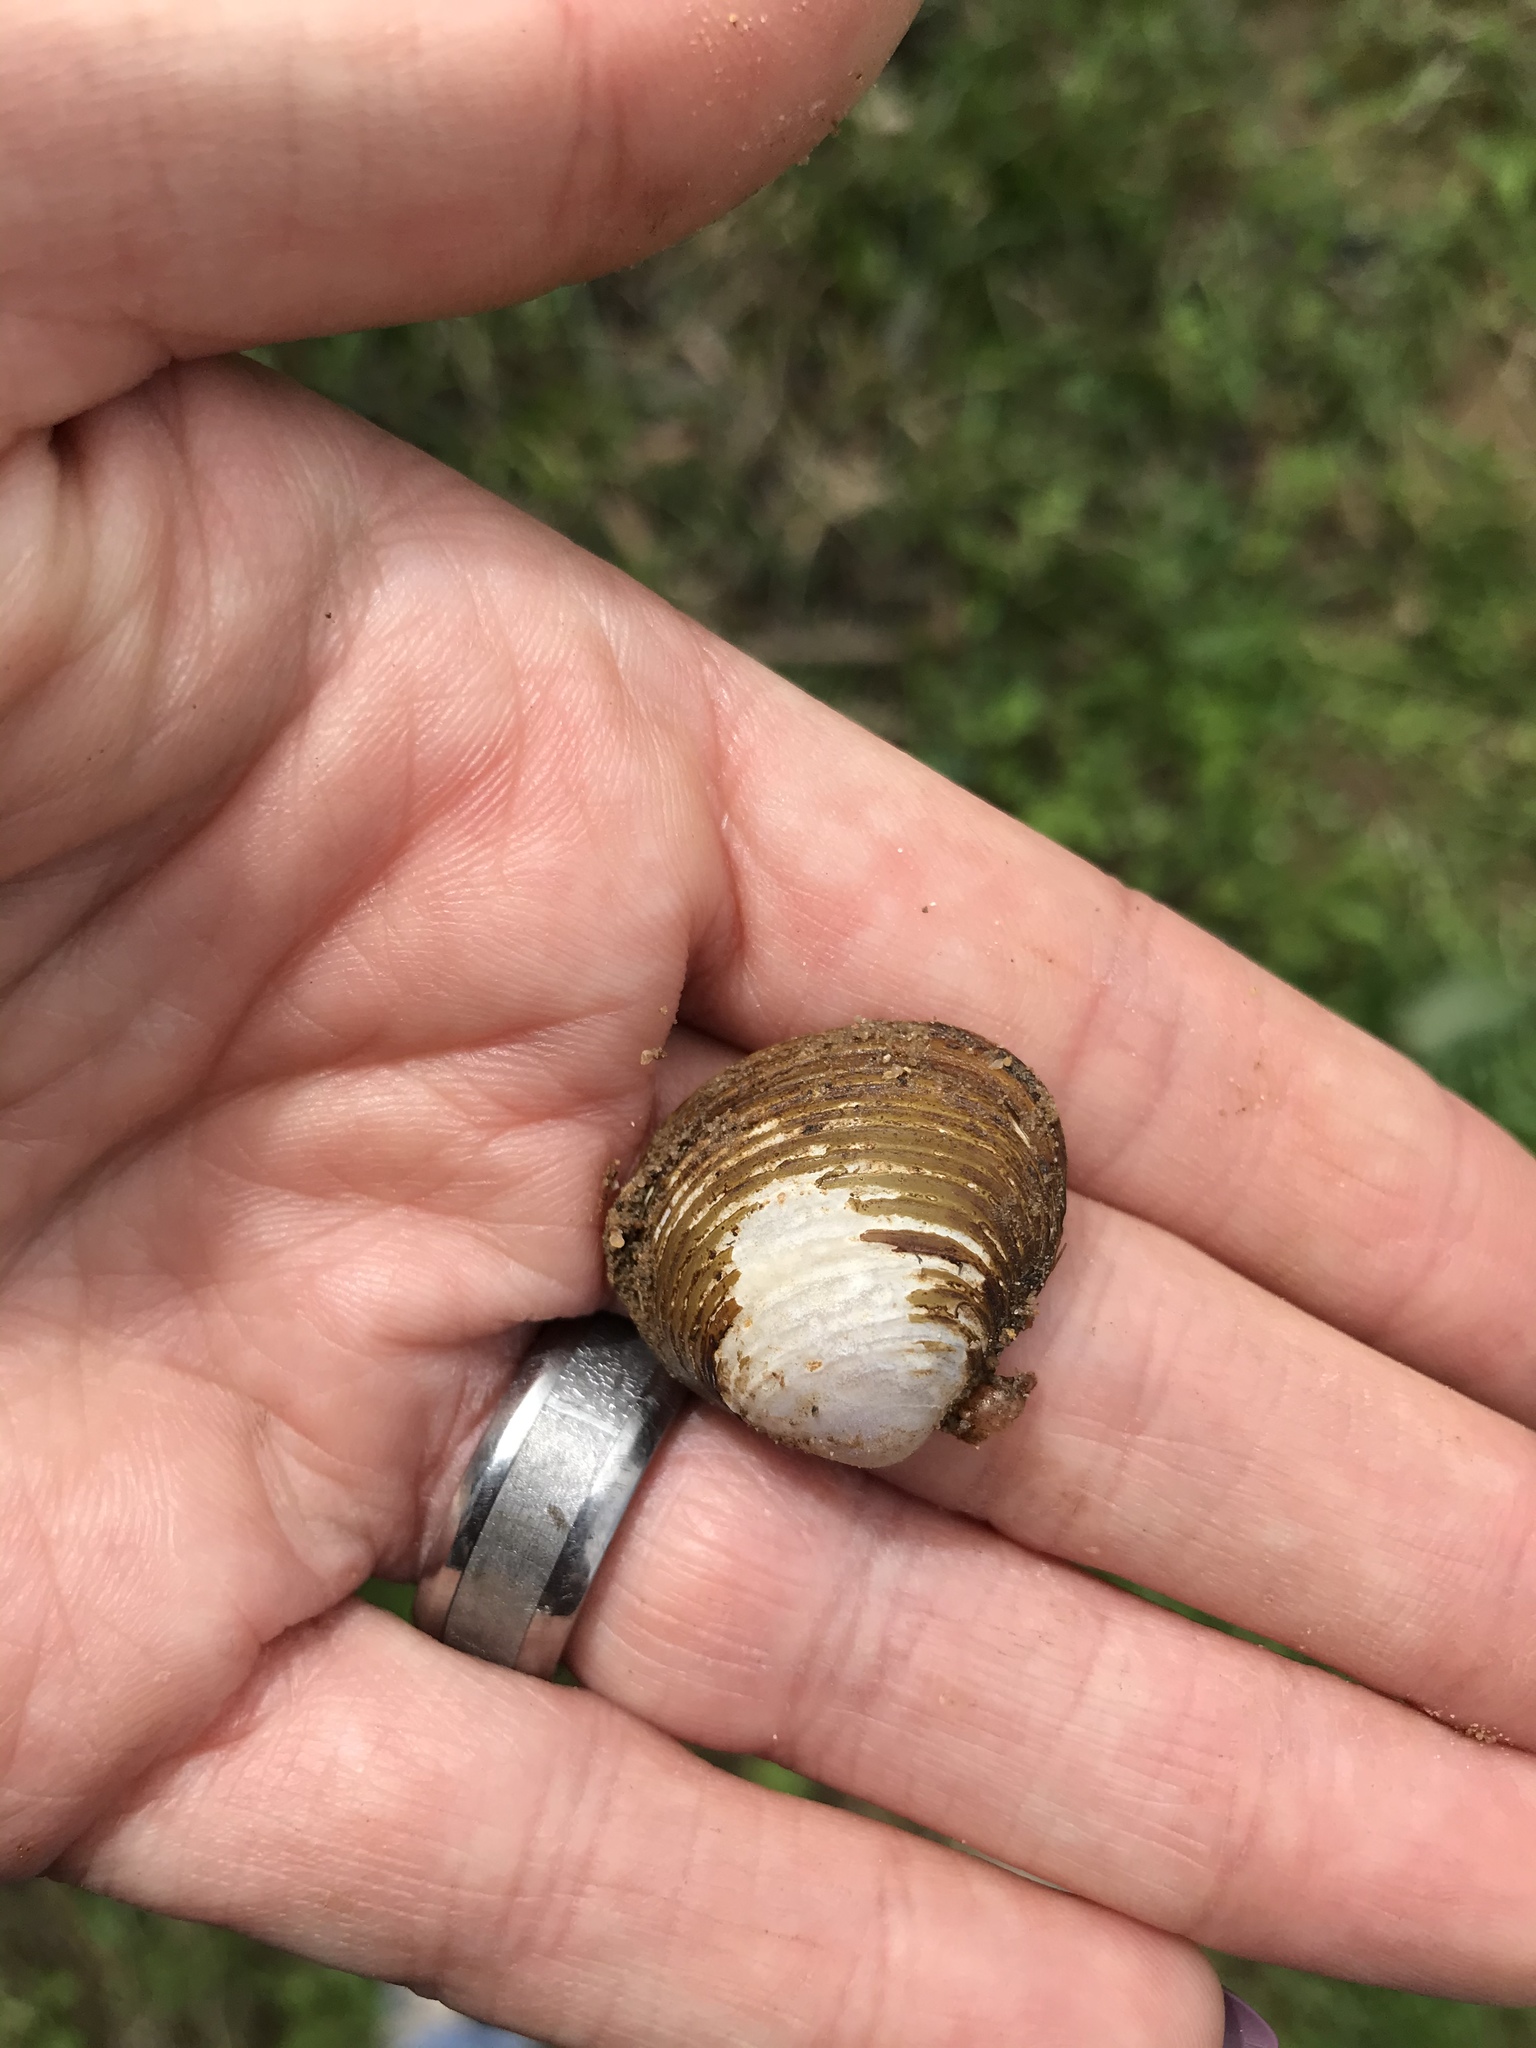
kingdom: Animalia
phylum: Mollusca
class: Bivalvia
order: Venerida
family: Cyrenidae
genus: Corbicula
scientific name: Corbicula fluminea
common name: Asian clam
